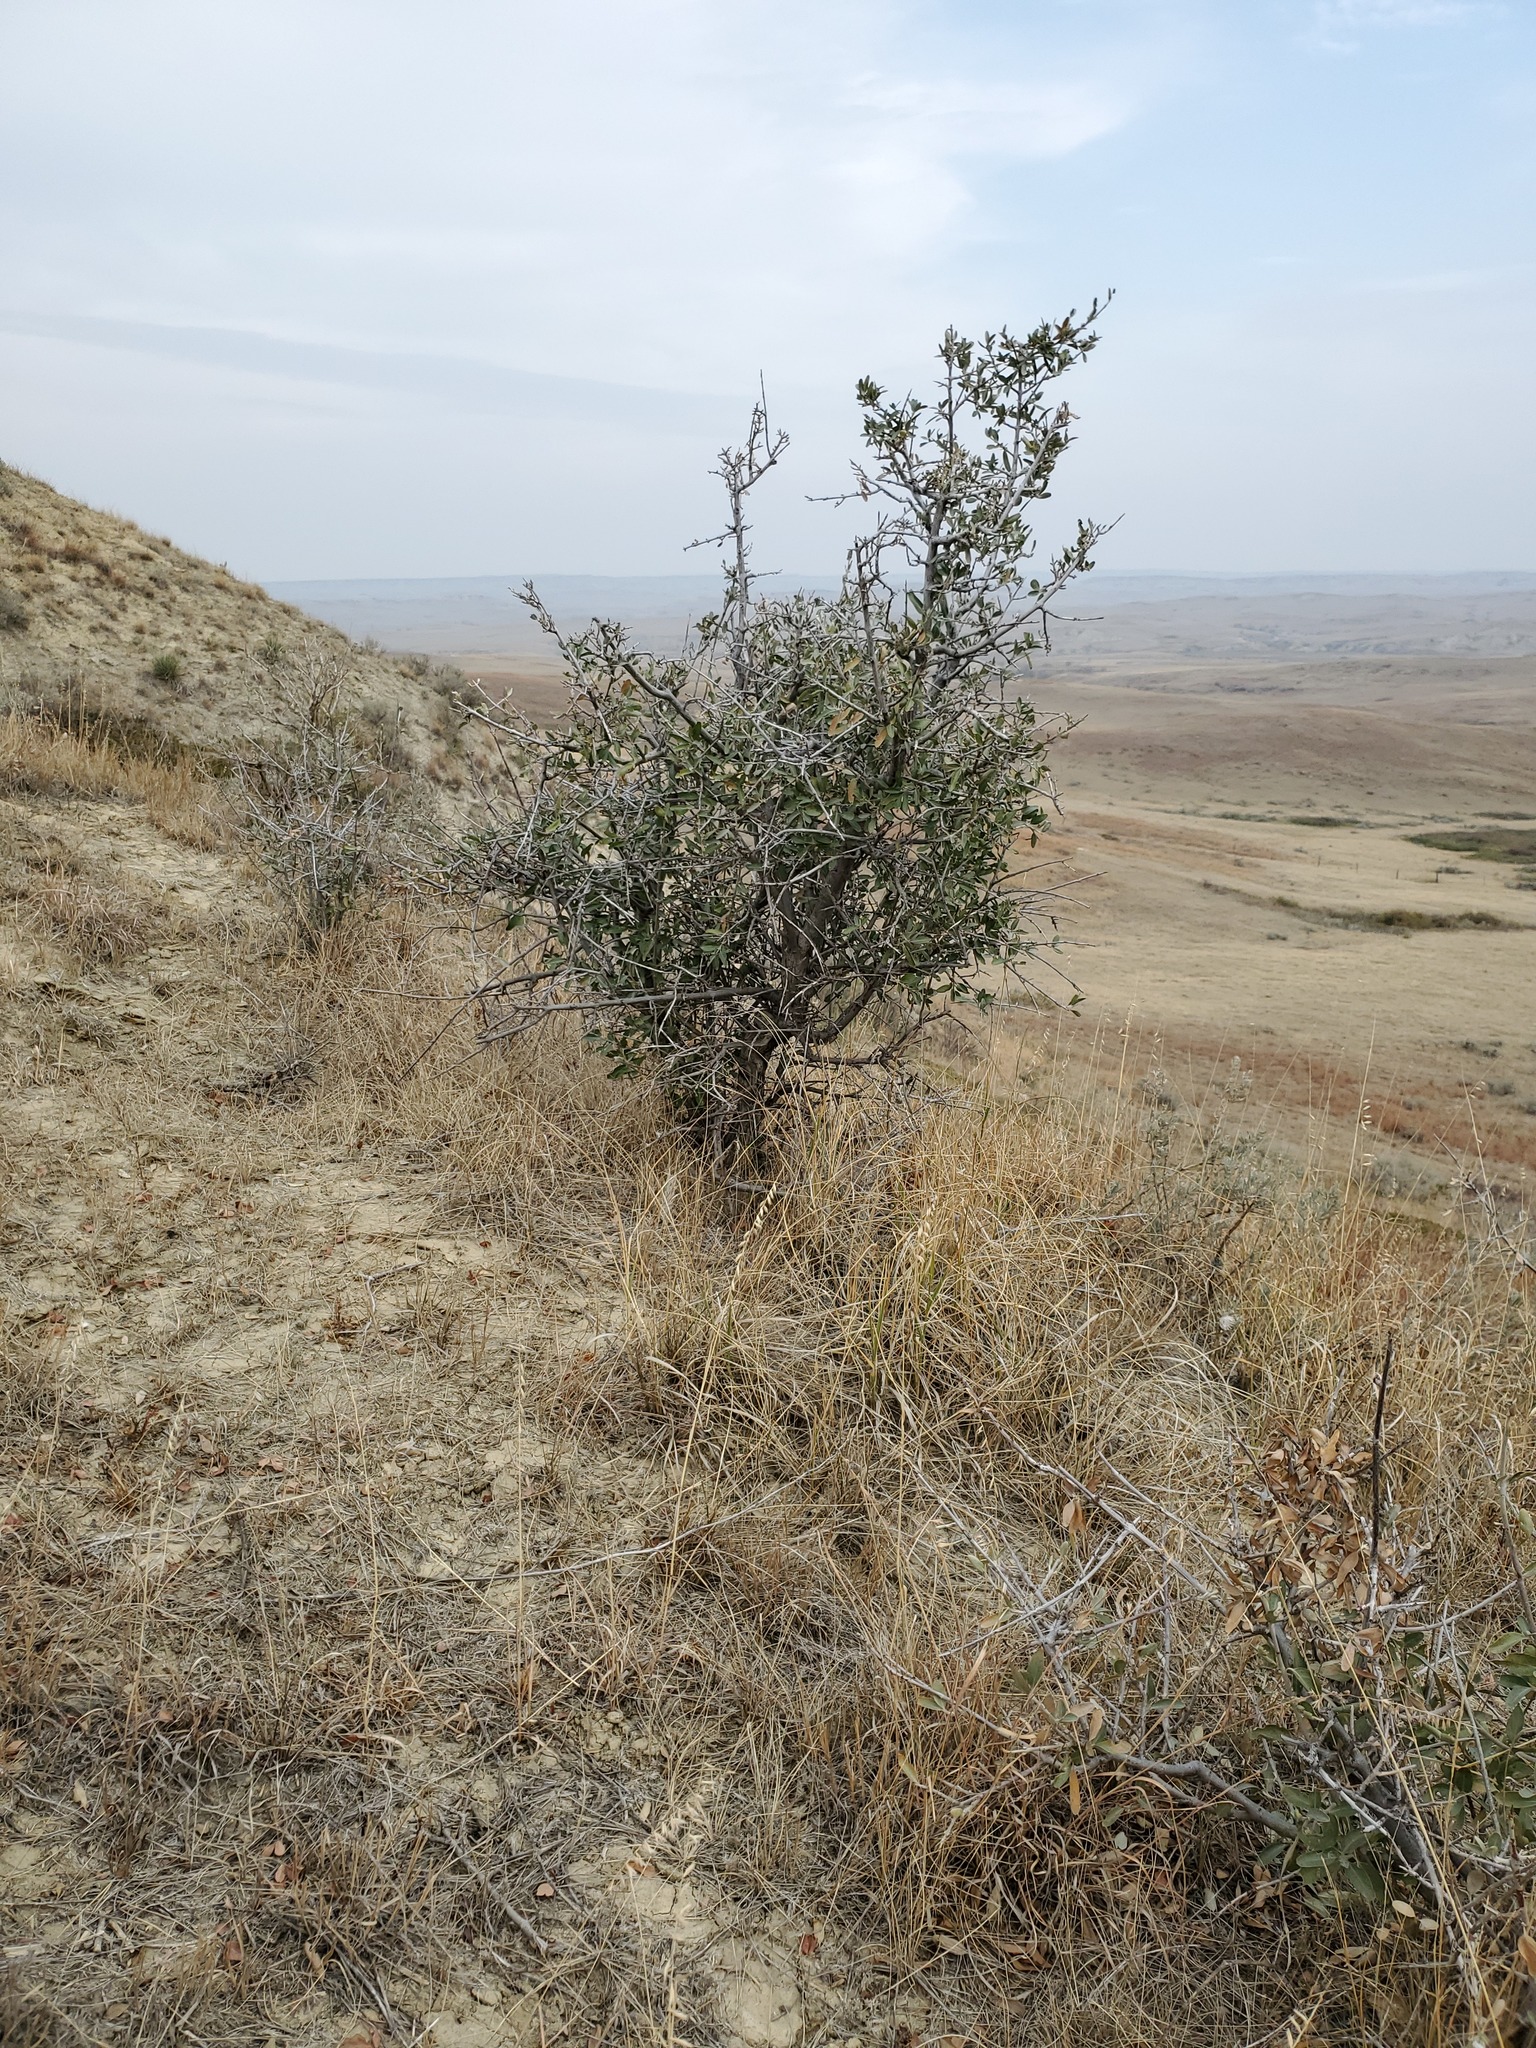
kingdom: Plantae
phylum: Tracheophyta
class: Magnoliopsida
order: Rosales
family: Elaeagnaceae
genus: Shepherdia
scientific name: Shepherdia argentea
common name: Silver buffaloberry
